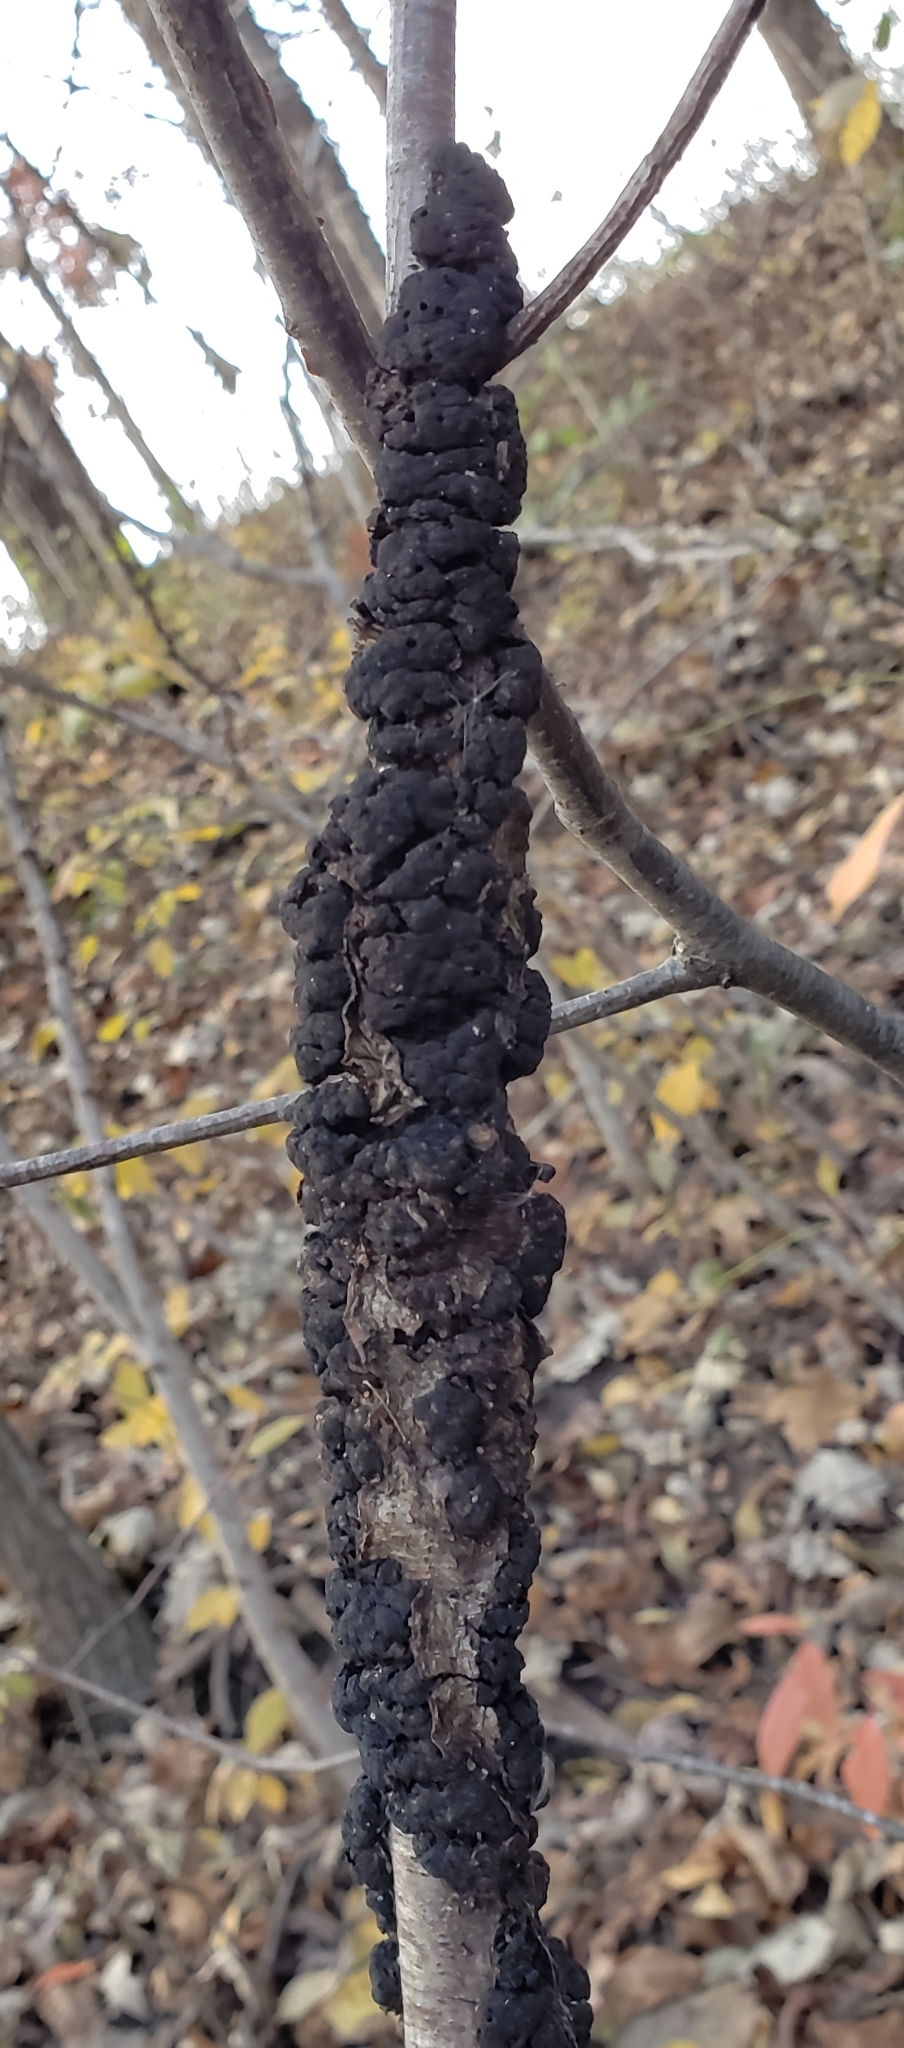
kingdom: Fungi
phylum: Ascomycota
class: Dothideomycetes
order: Venturiales
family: Venturiaceae
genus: Apiosporina
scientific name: Apiosporina morbosa
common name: Black knot
